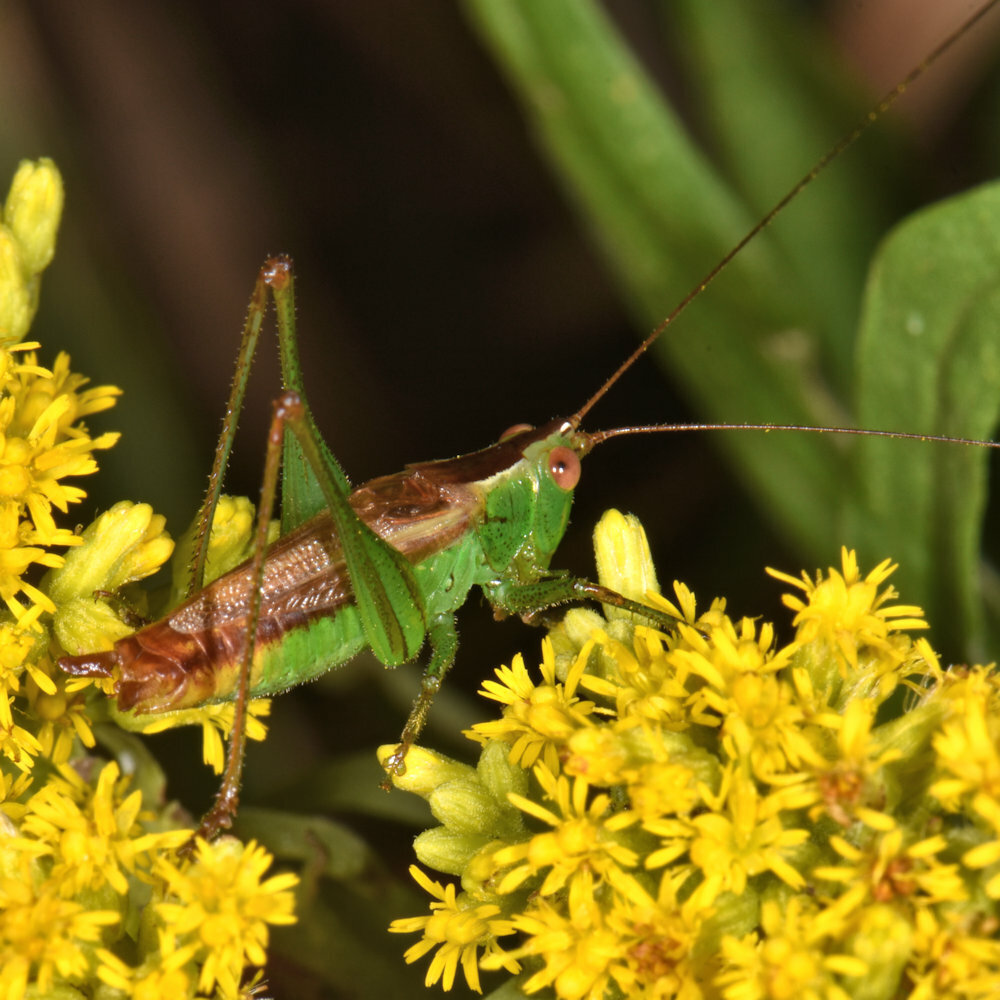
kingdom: Animalia
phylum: Arthropoda
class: Insecta
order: Orthoptera
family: Tettigoniidae
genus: Conocephalus
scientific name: Conocephalus brevipennis
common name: Short-winged meadow katydid
